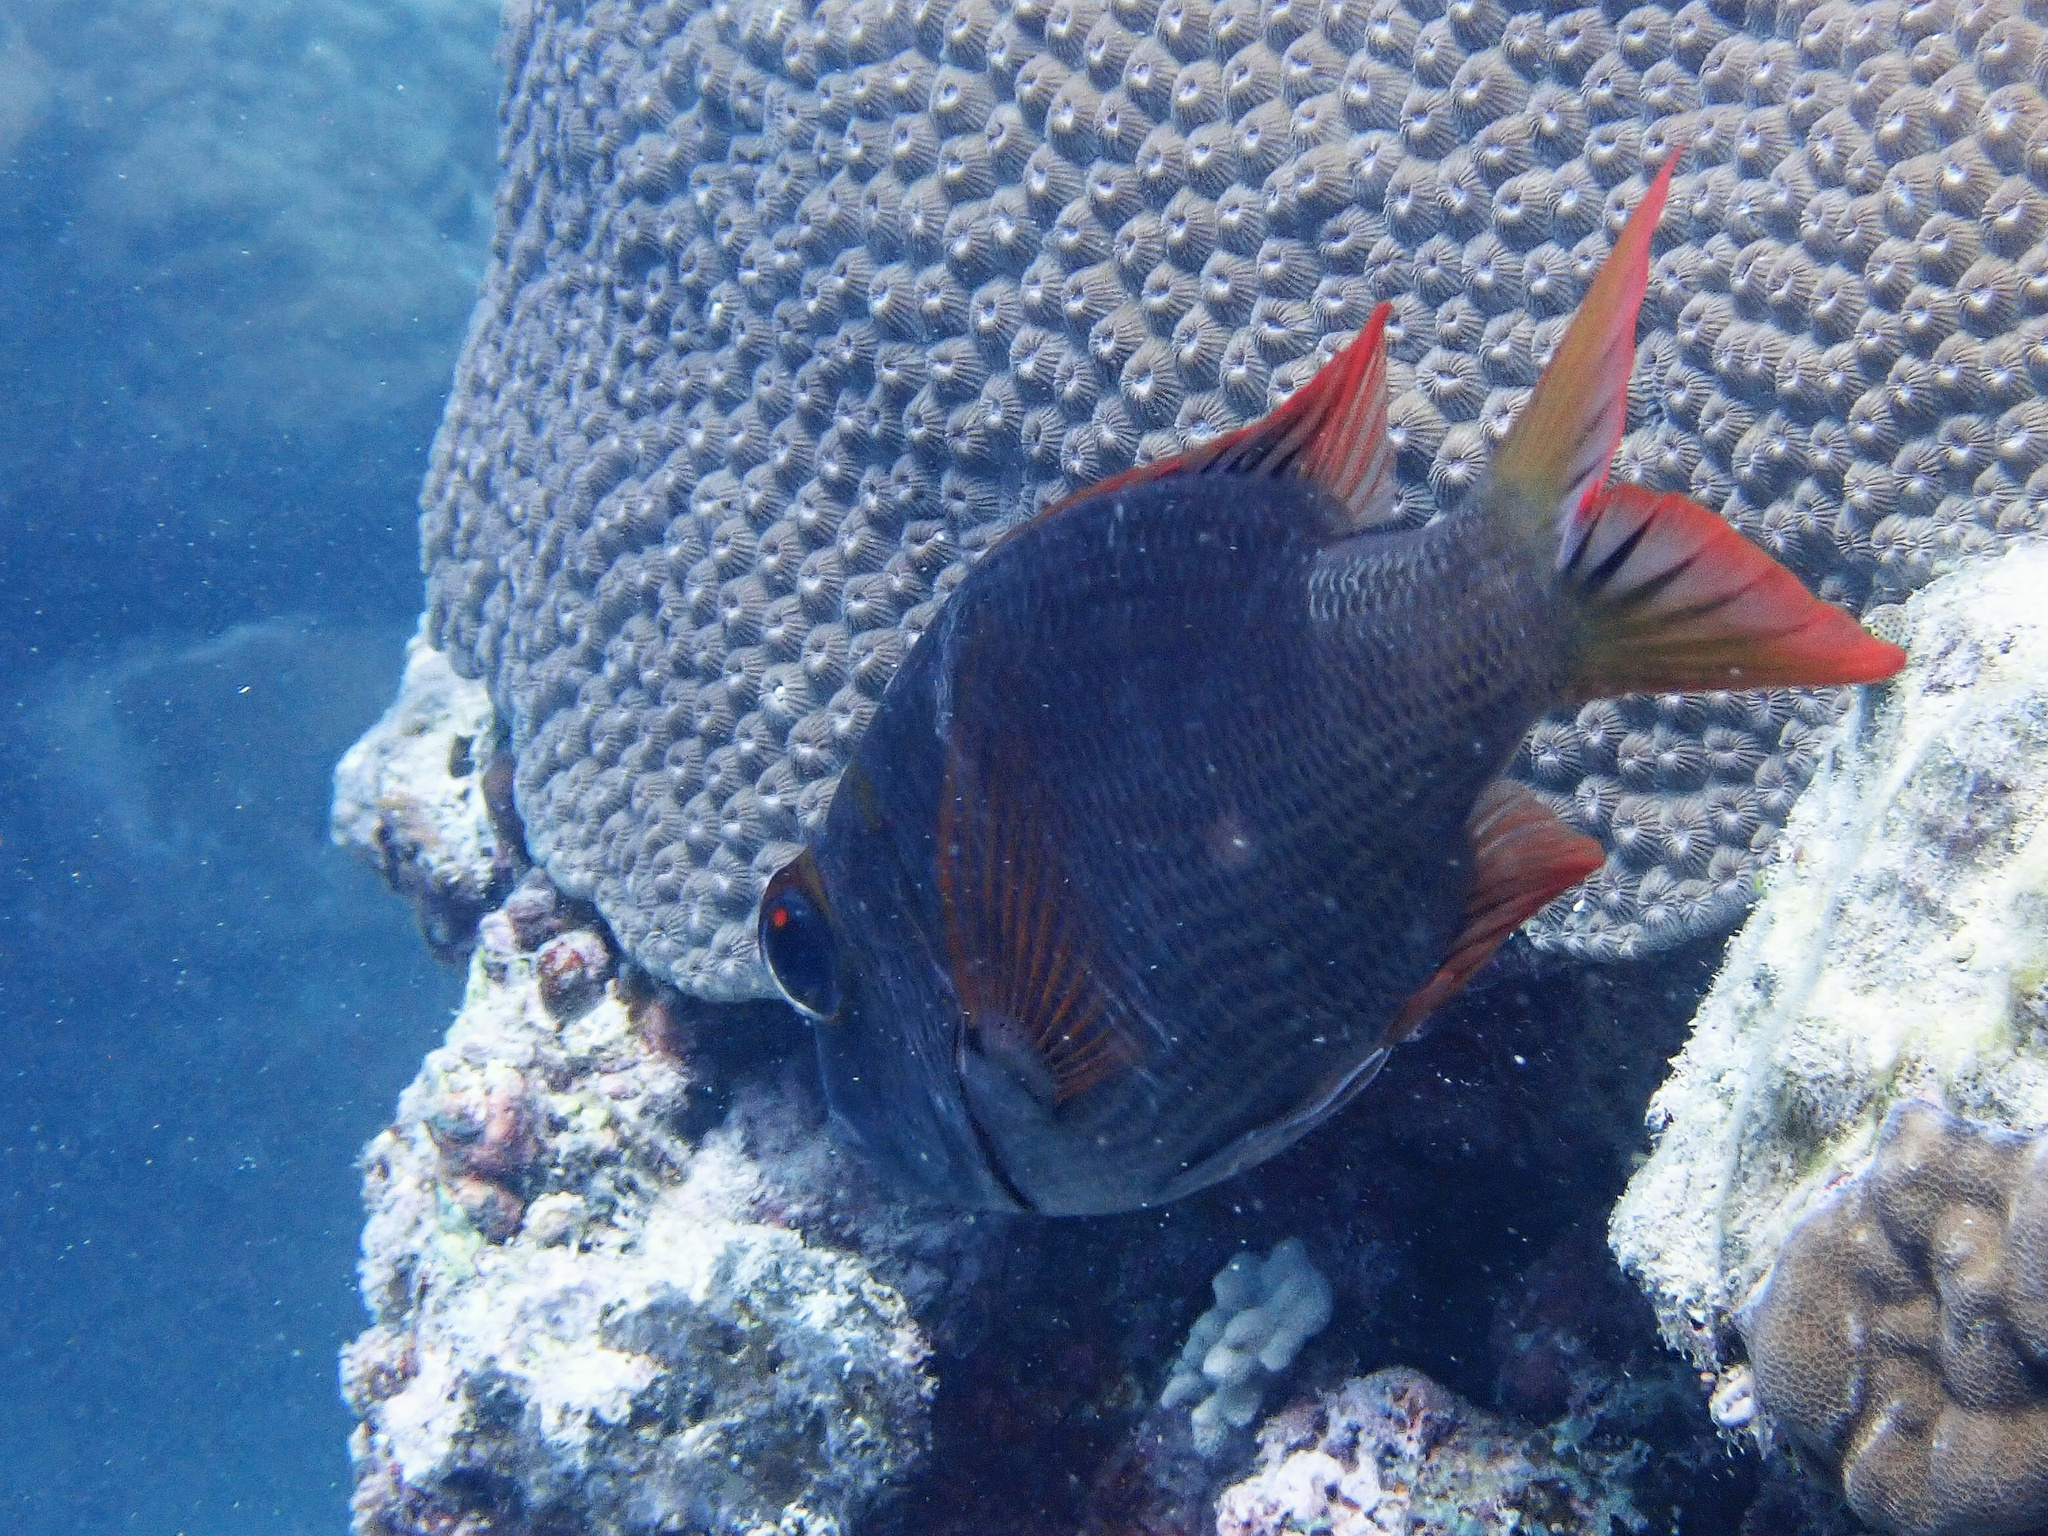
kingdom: Animalia
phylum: Chordata
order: Perciformes
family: Lethrinidae
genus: Monotaxis
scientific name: Monotaxis heterodon
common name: Redfin emperor
